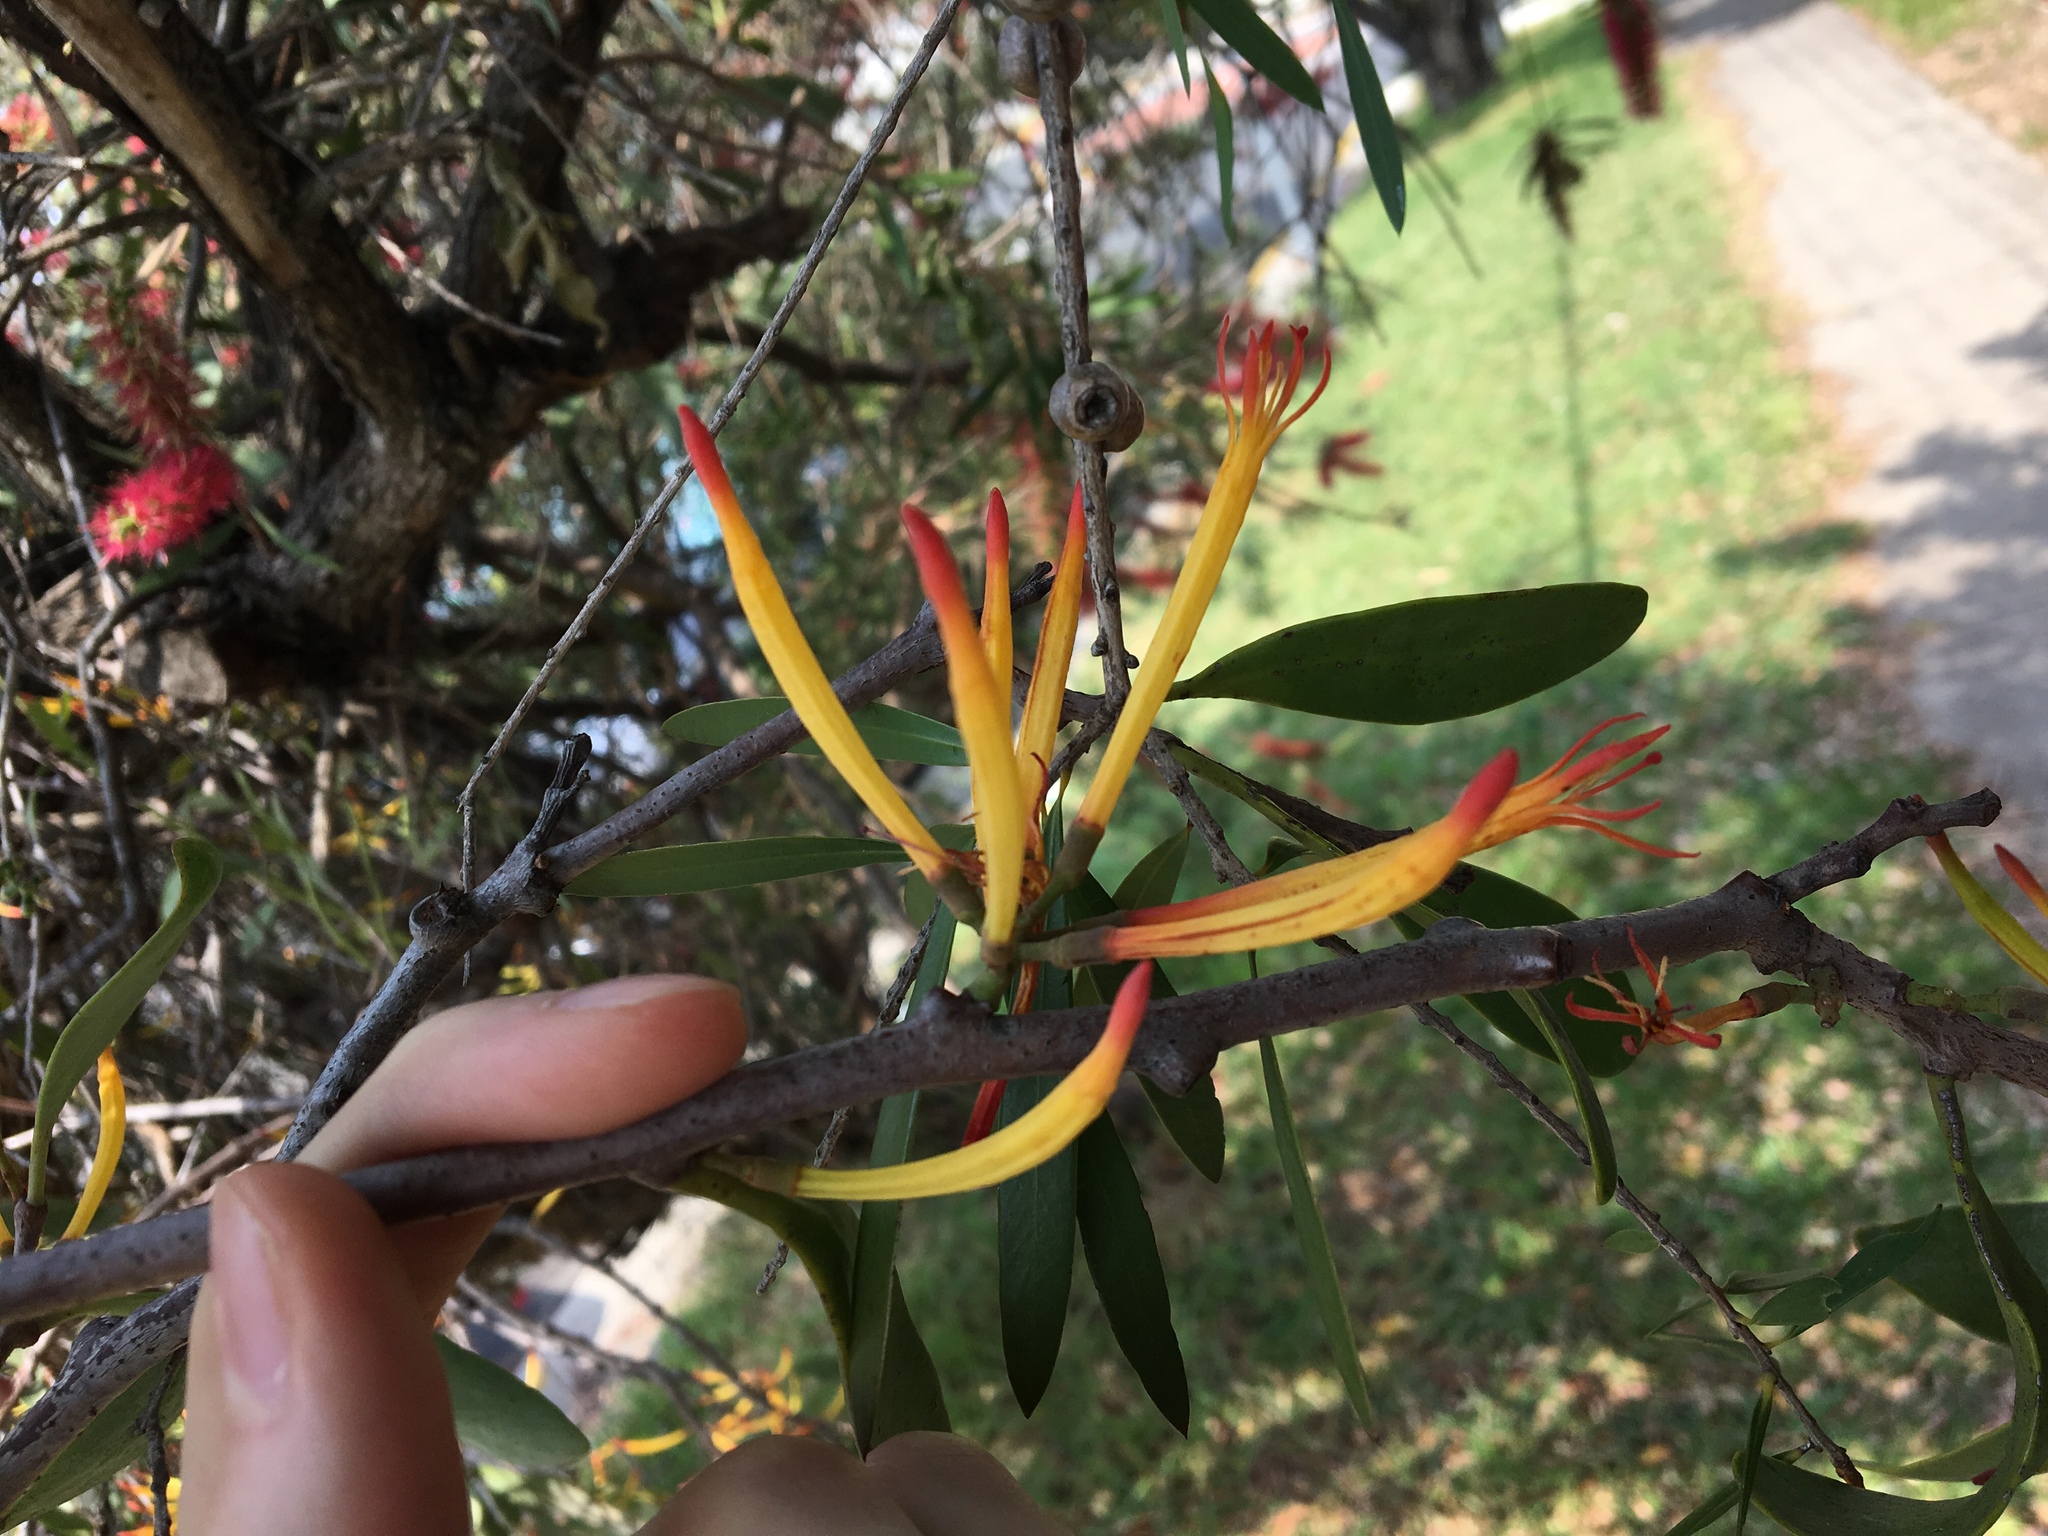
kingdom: Plantae
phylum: Tracheophyta
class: Magnoliopsida
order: Santalales
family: Loranthaceae
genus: Dendrophthoe
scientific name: Dendrophthoe vitellina
